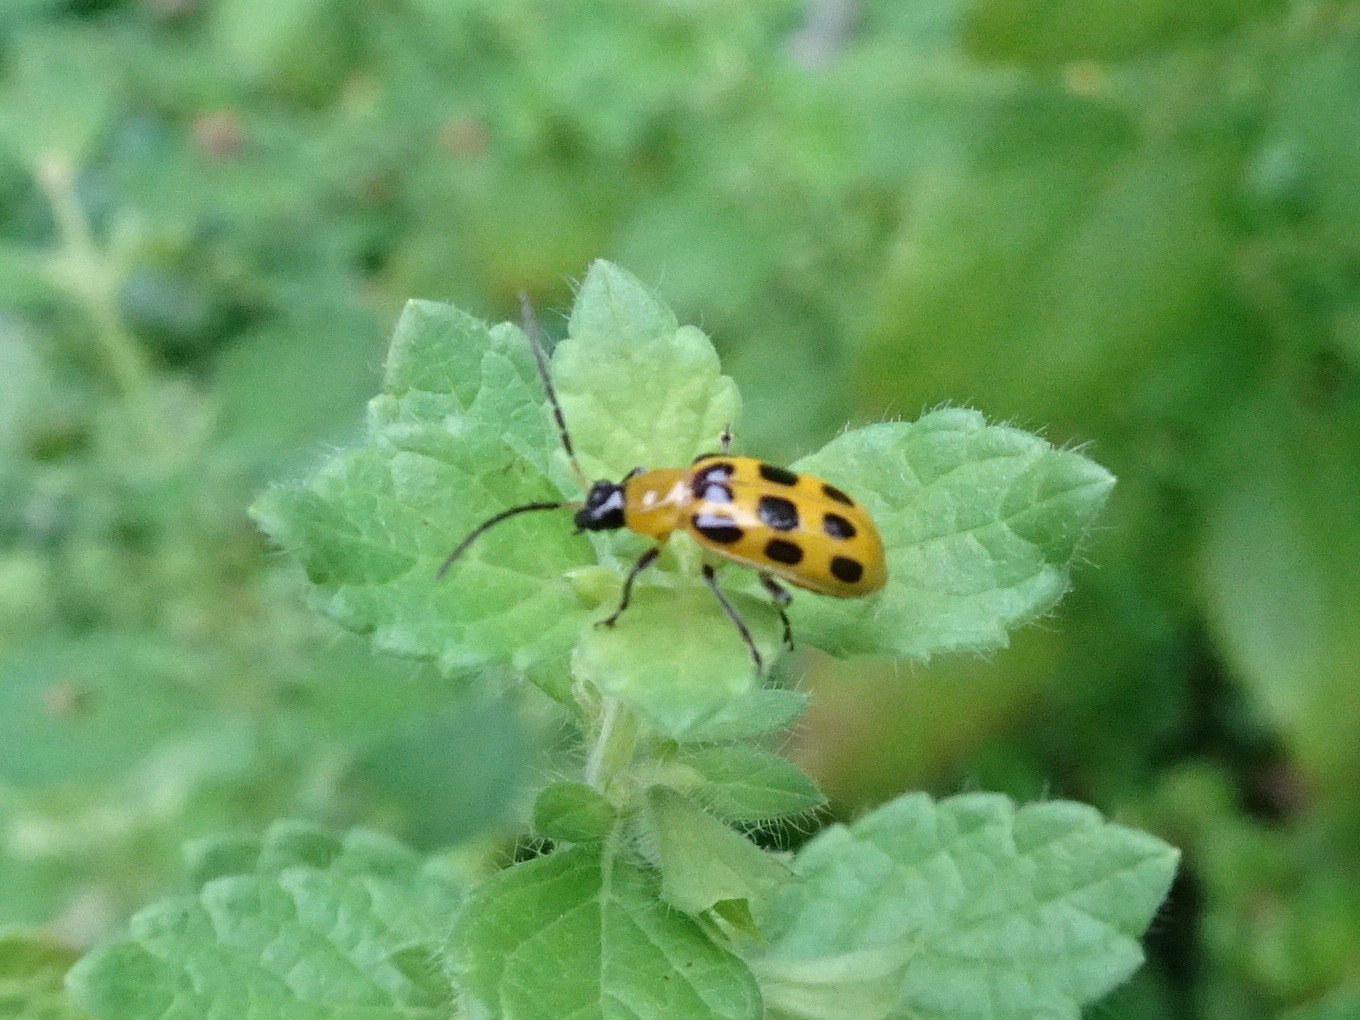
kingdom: Animalia
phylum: Arthropoda
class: Insecta
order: Coleoptera
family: Chrysomelidae
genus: Diabrotica
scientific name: Diabrotica undecimpunctata
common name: Spotted cucumber beetle
